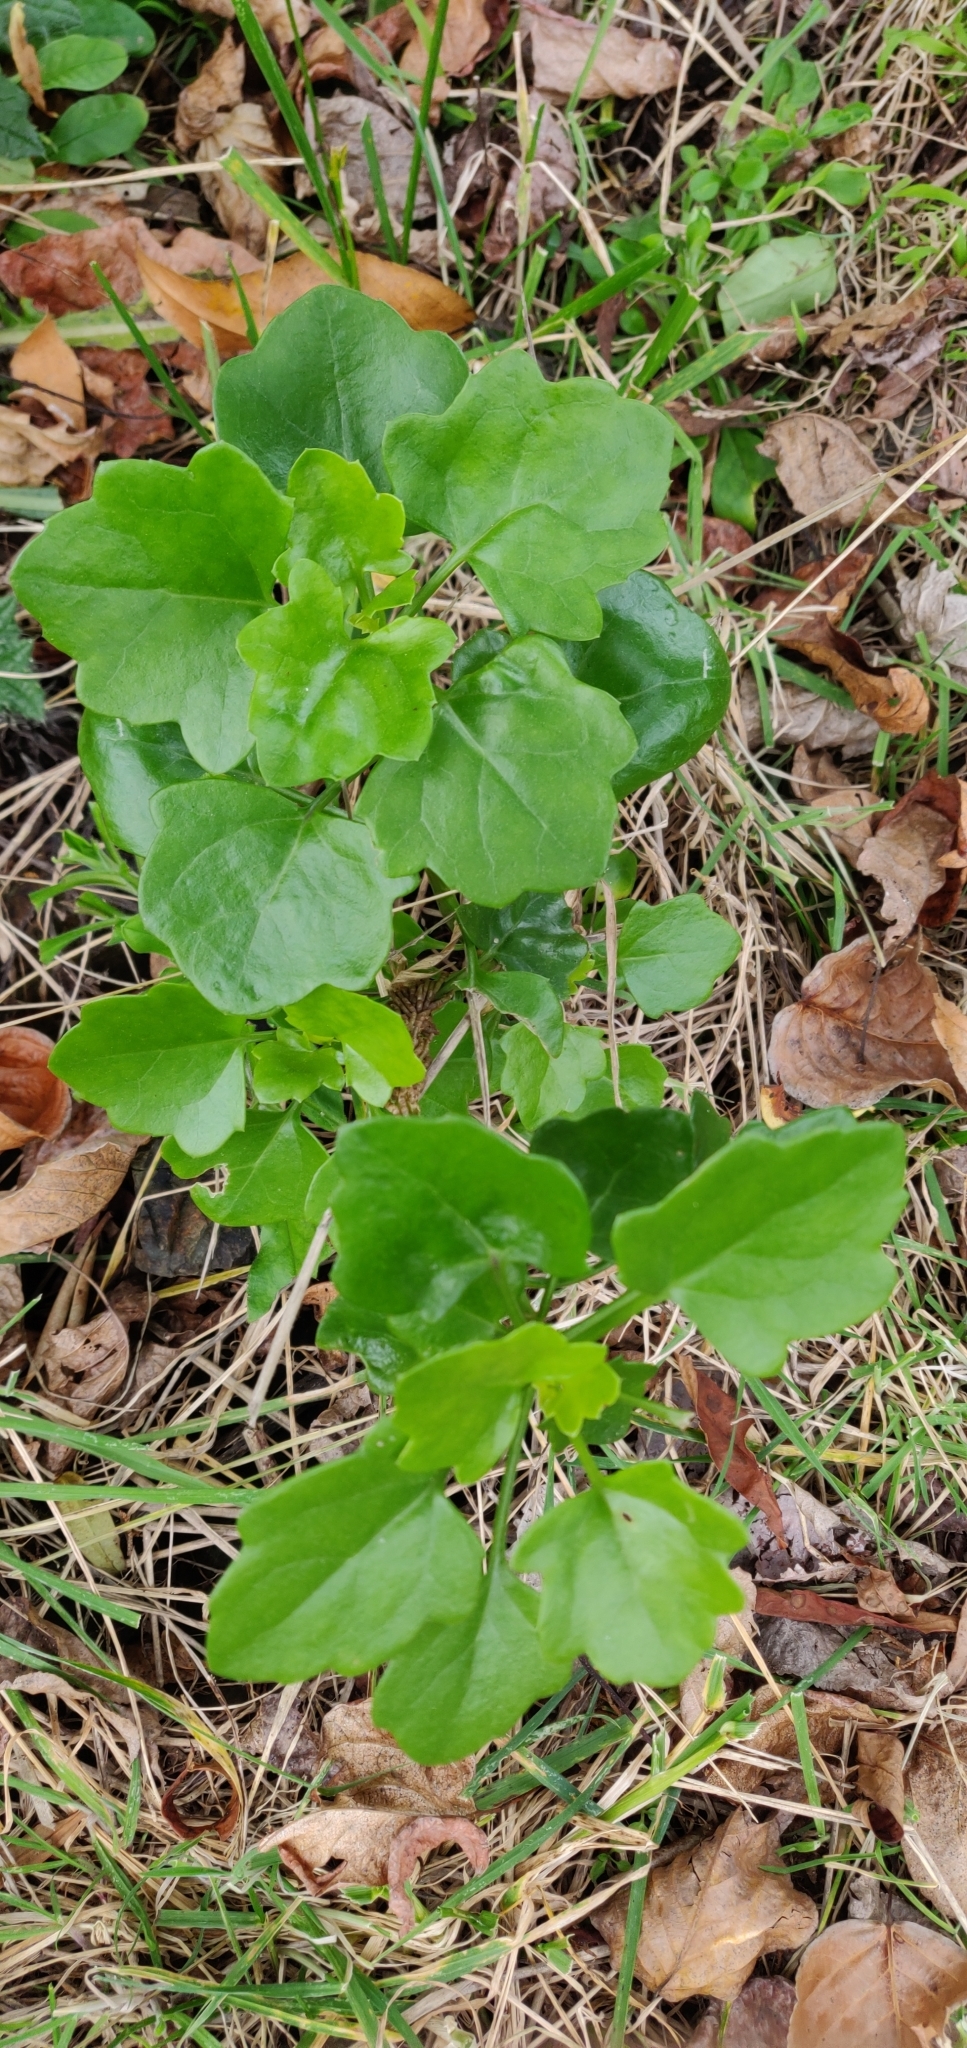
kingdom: Plantae
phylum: Tracheophyta
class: Magnoliopsida
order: Asterales
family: Asteraceae
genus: Senecio
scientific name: Senecio angulatus
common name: Climbing groundsel
